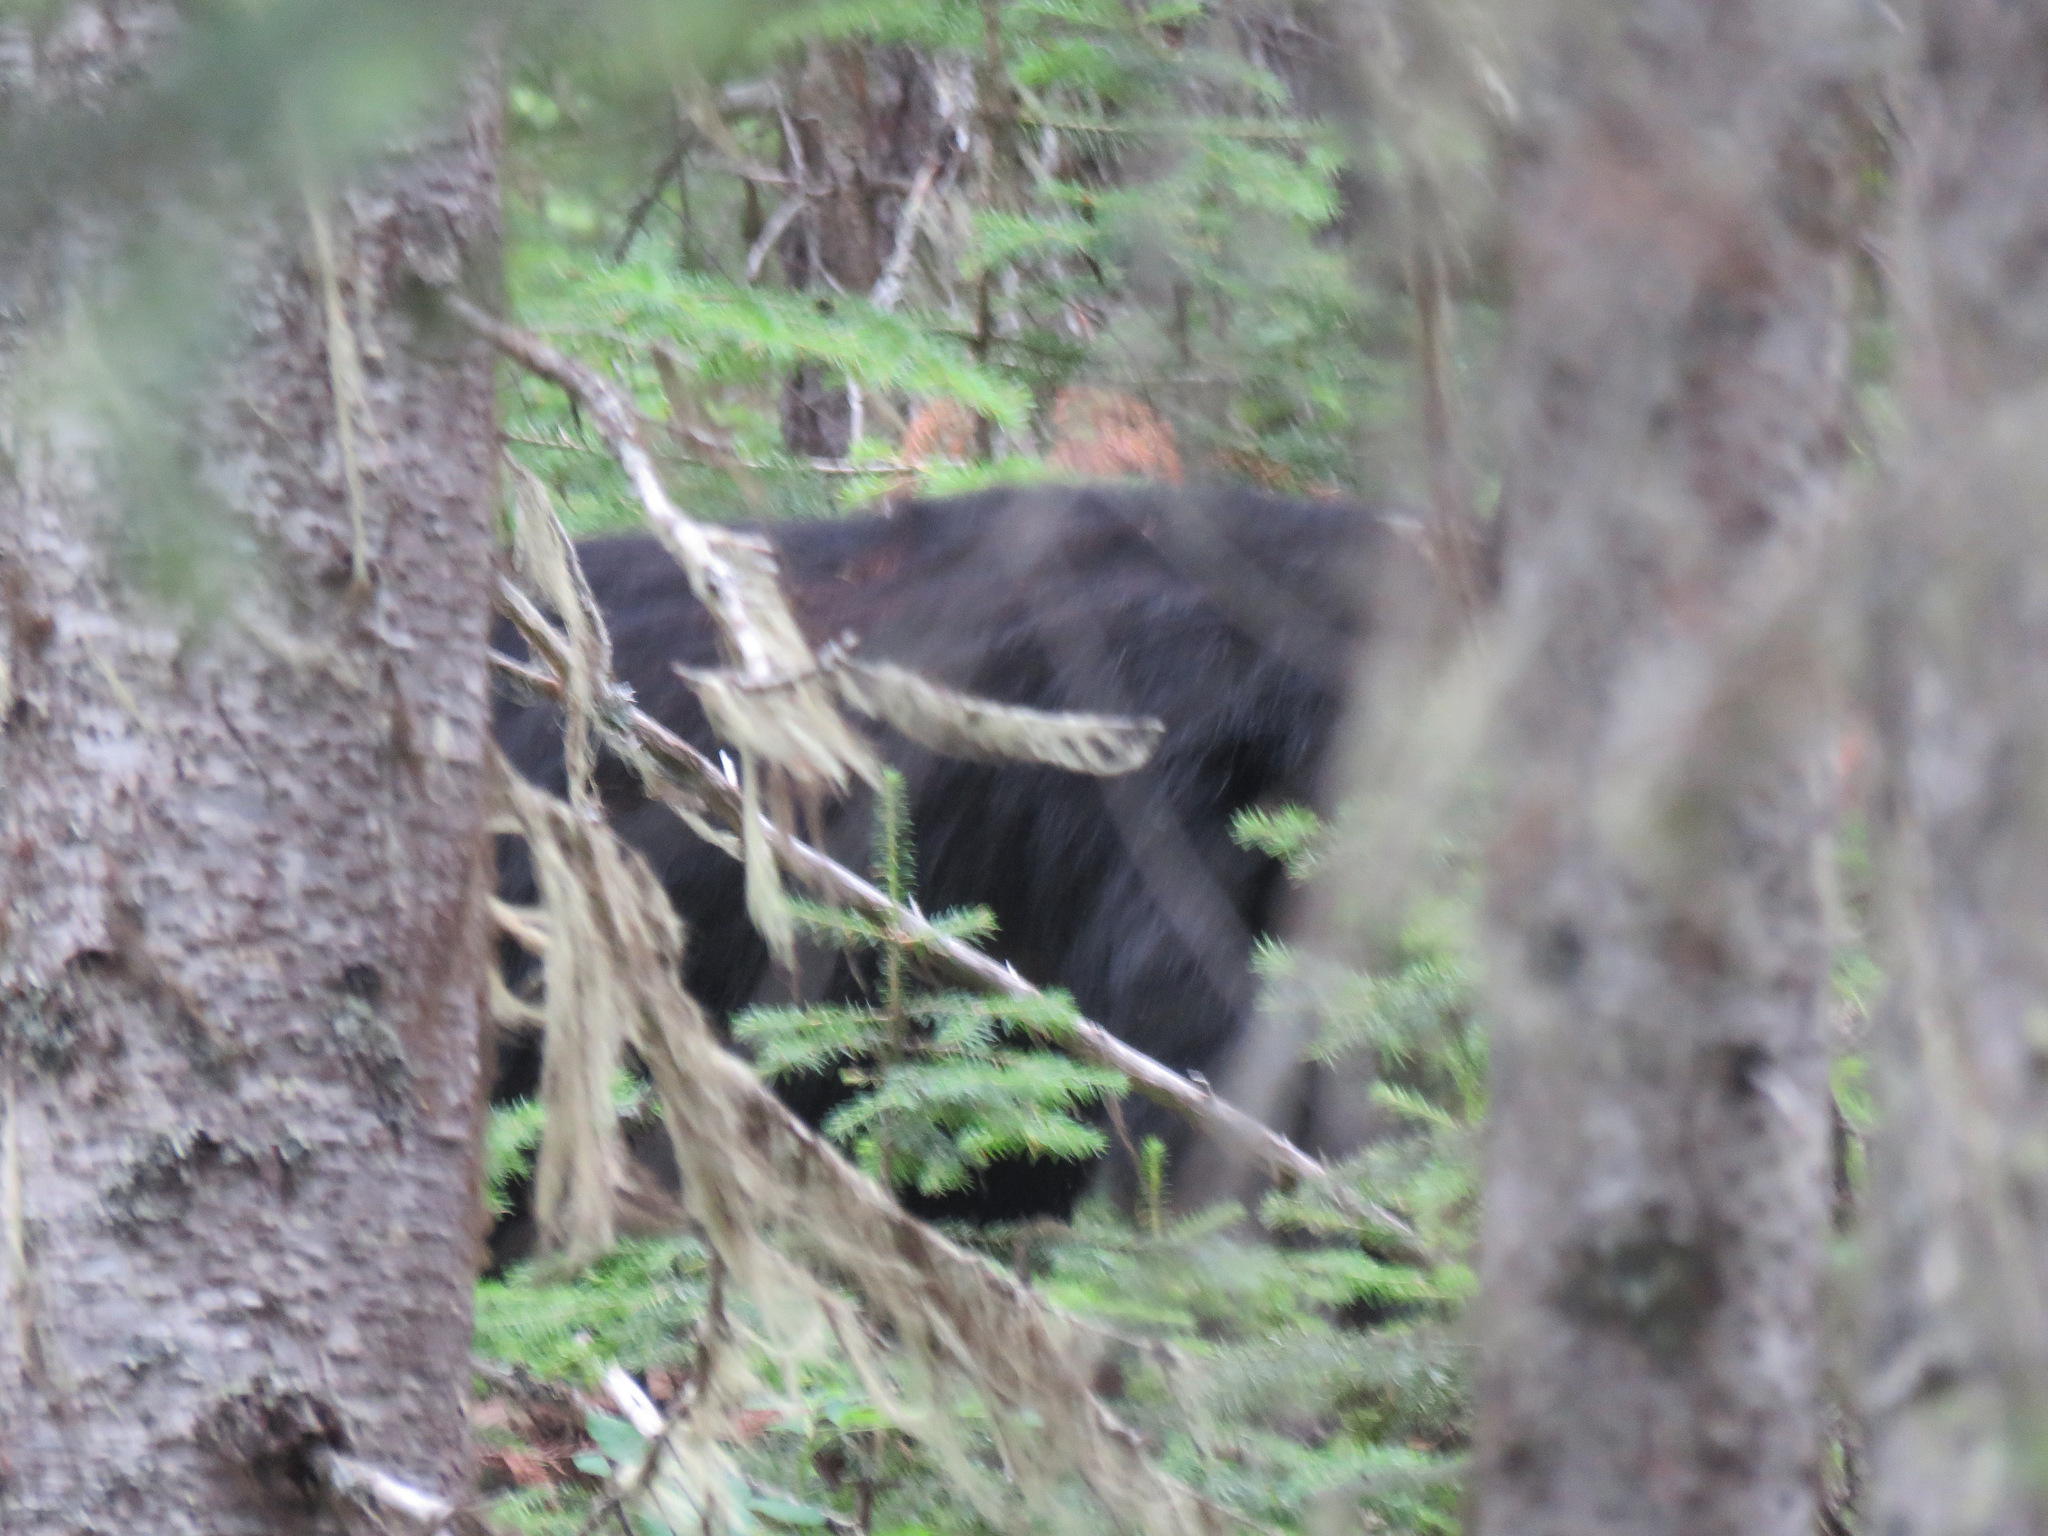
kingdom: Animalia
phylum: Chordata
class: Mammalia
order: Carnivora
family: Ursidae
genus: Ursus
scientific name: Ursus americanus
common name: American black bear
